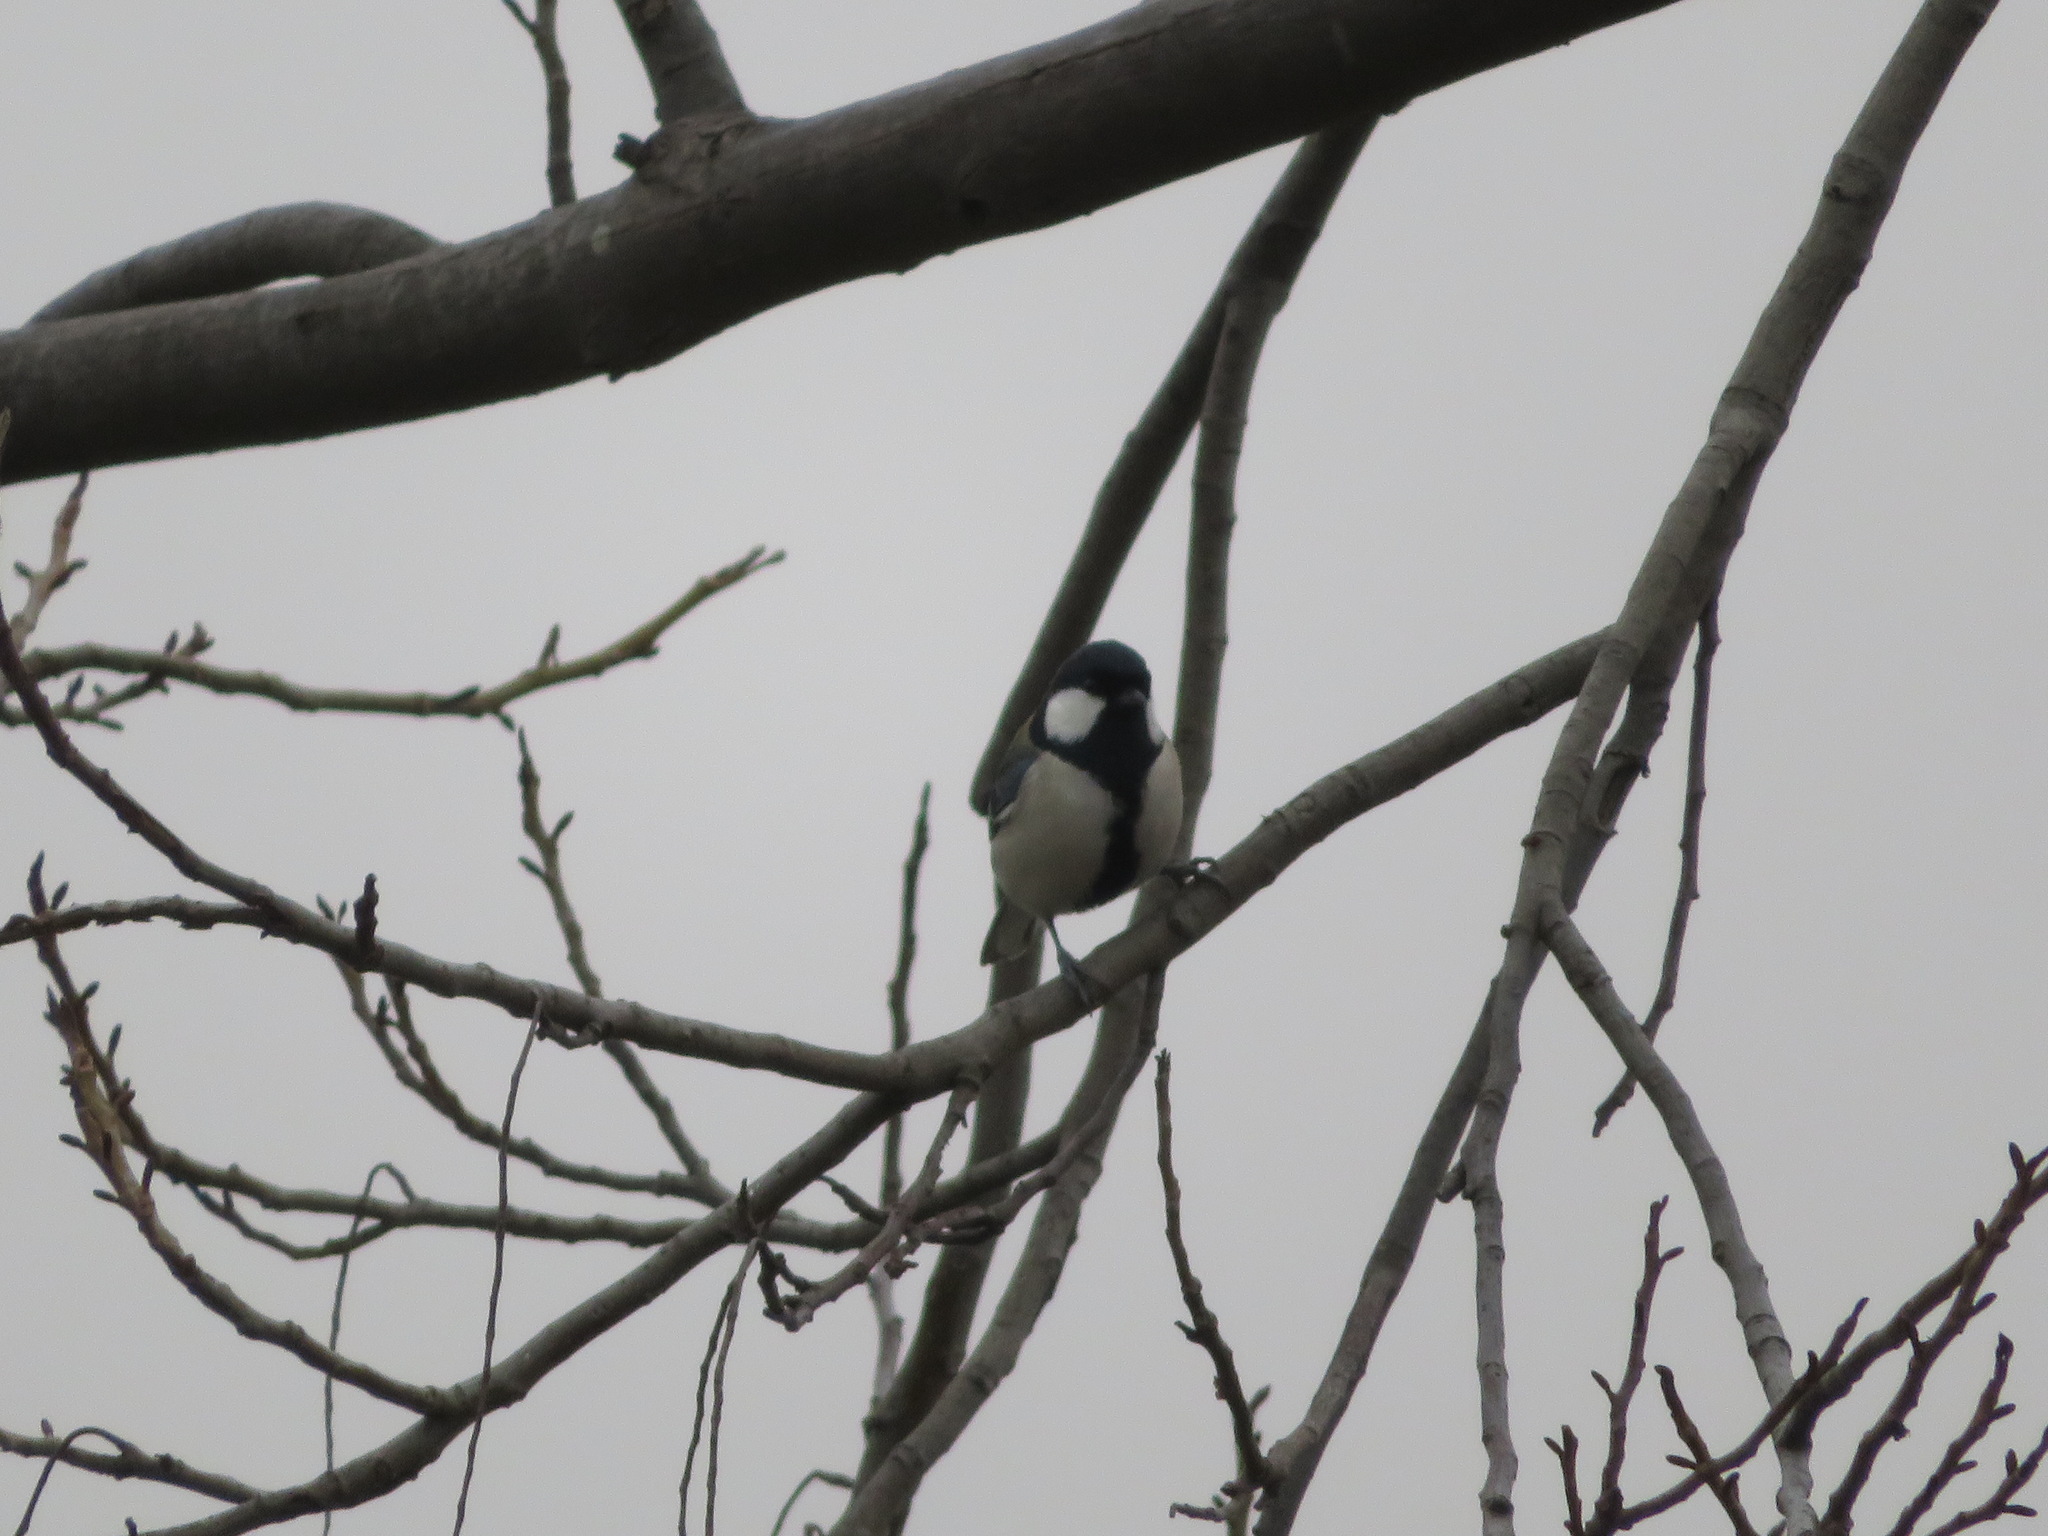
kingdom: Animalia
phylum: Chordata
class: Aves
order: Passeriformes
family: Paridae
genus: Parus
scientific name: Parus minor
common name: Japanese tit
